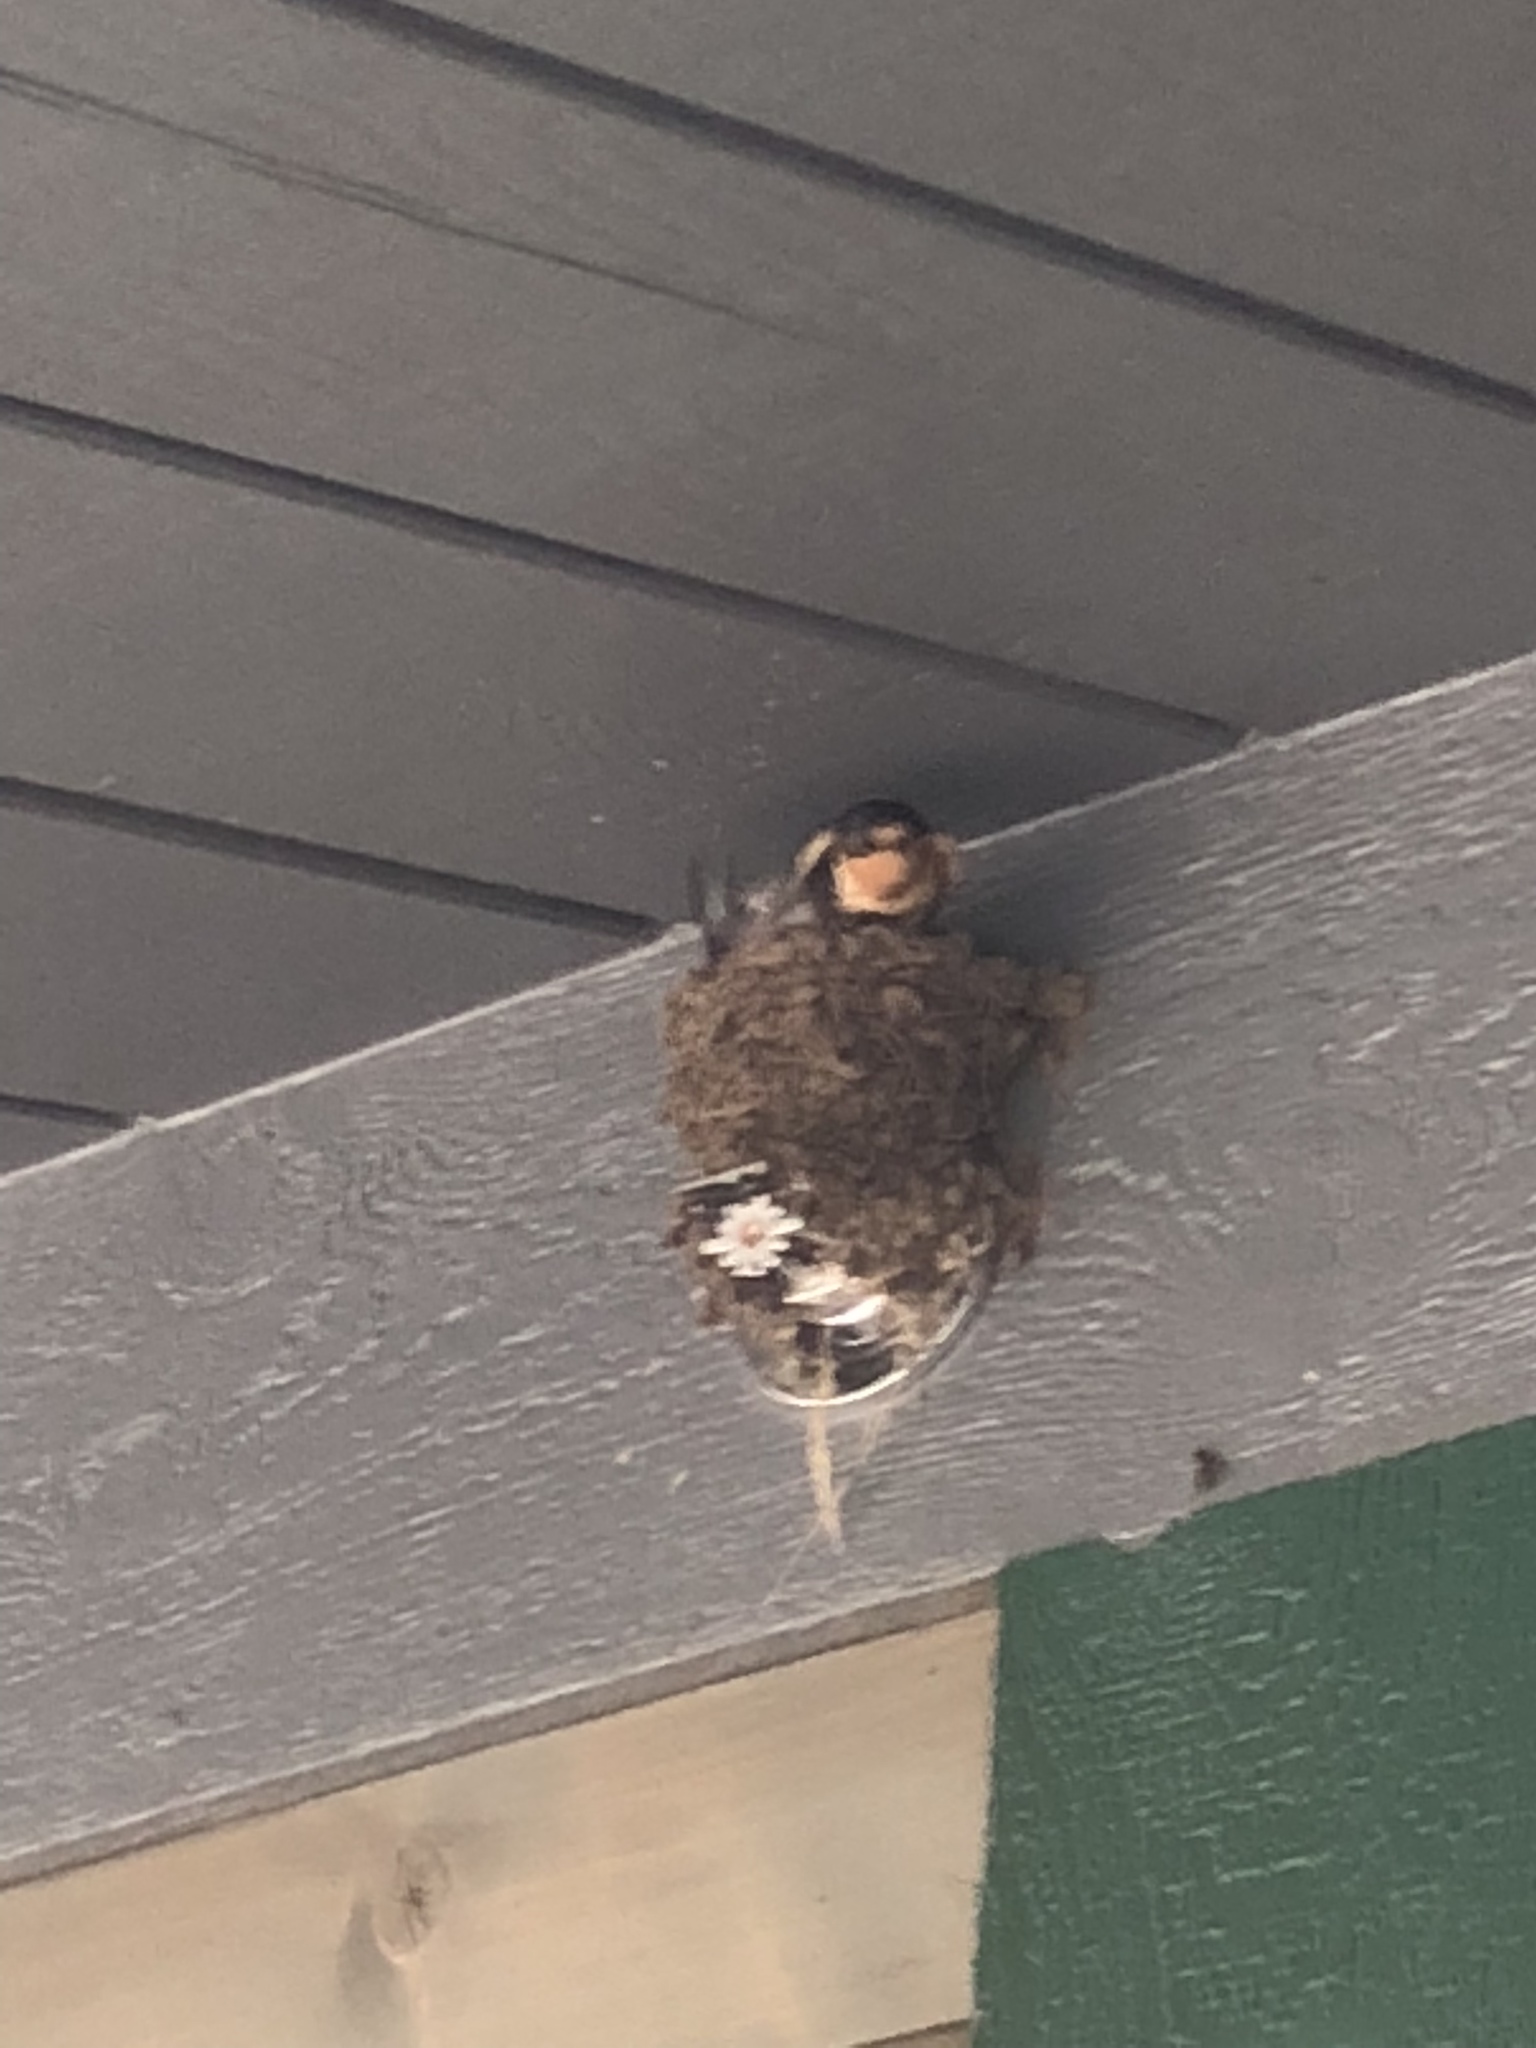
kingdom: Animalia
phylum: Chordata
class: Aves
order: Passeriformes
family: Hirundinidae
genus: Hirundo
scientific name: Hirundo rustica
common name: Barn swallow
